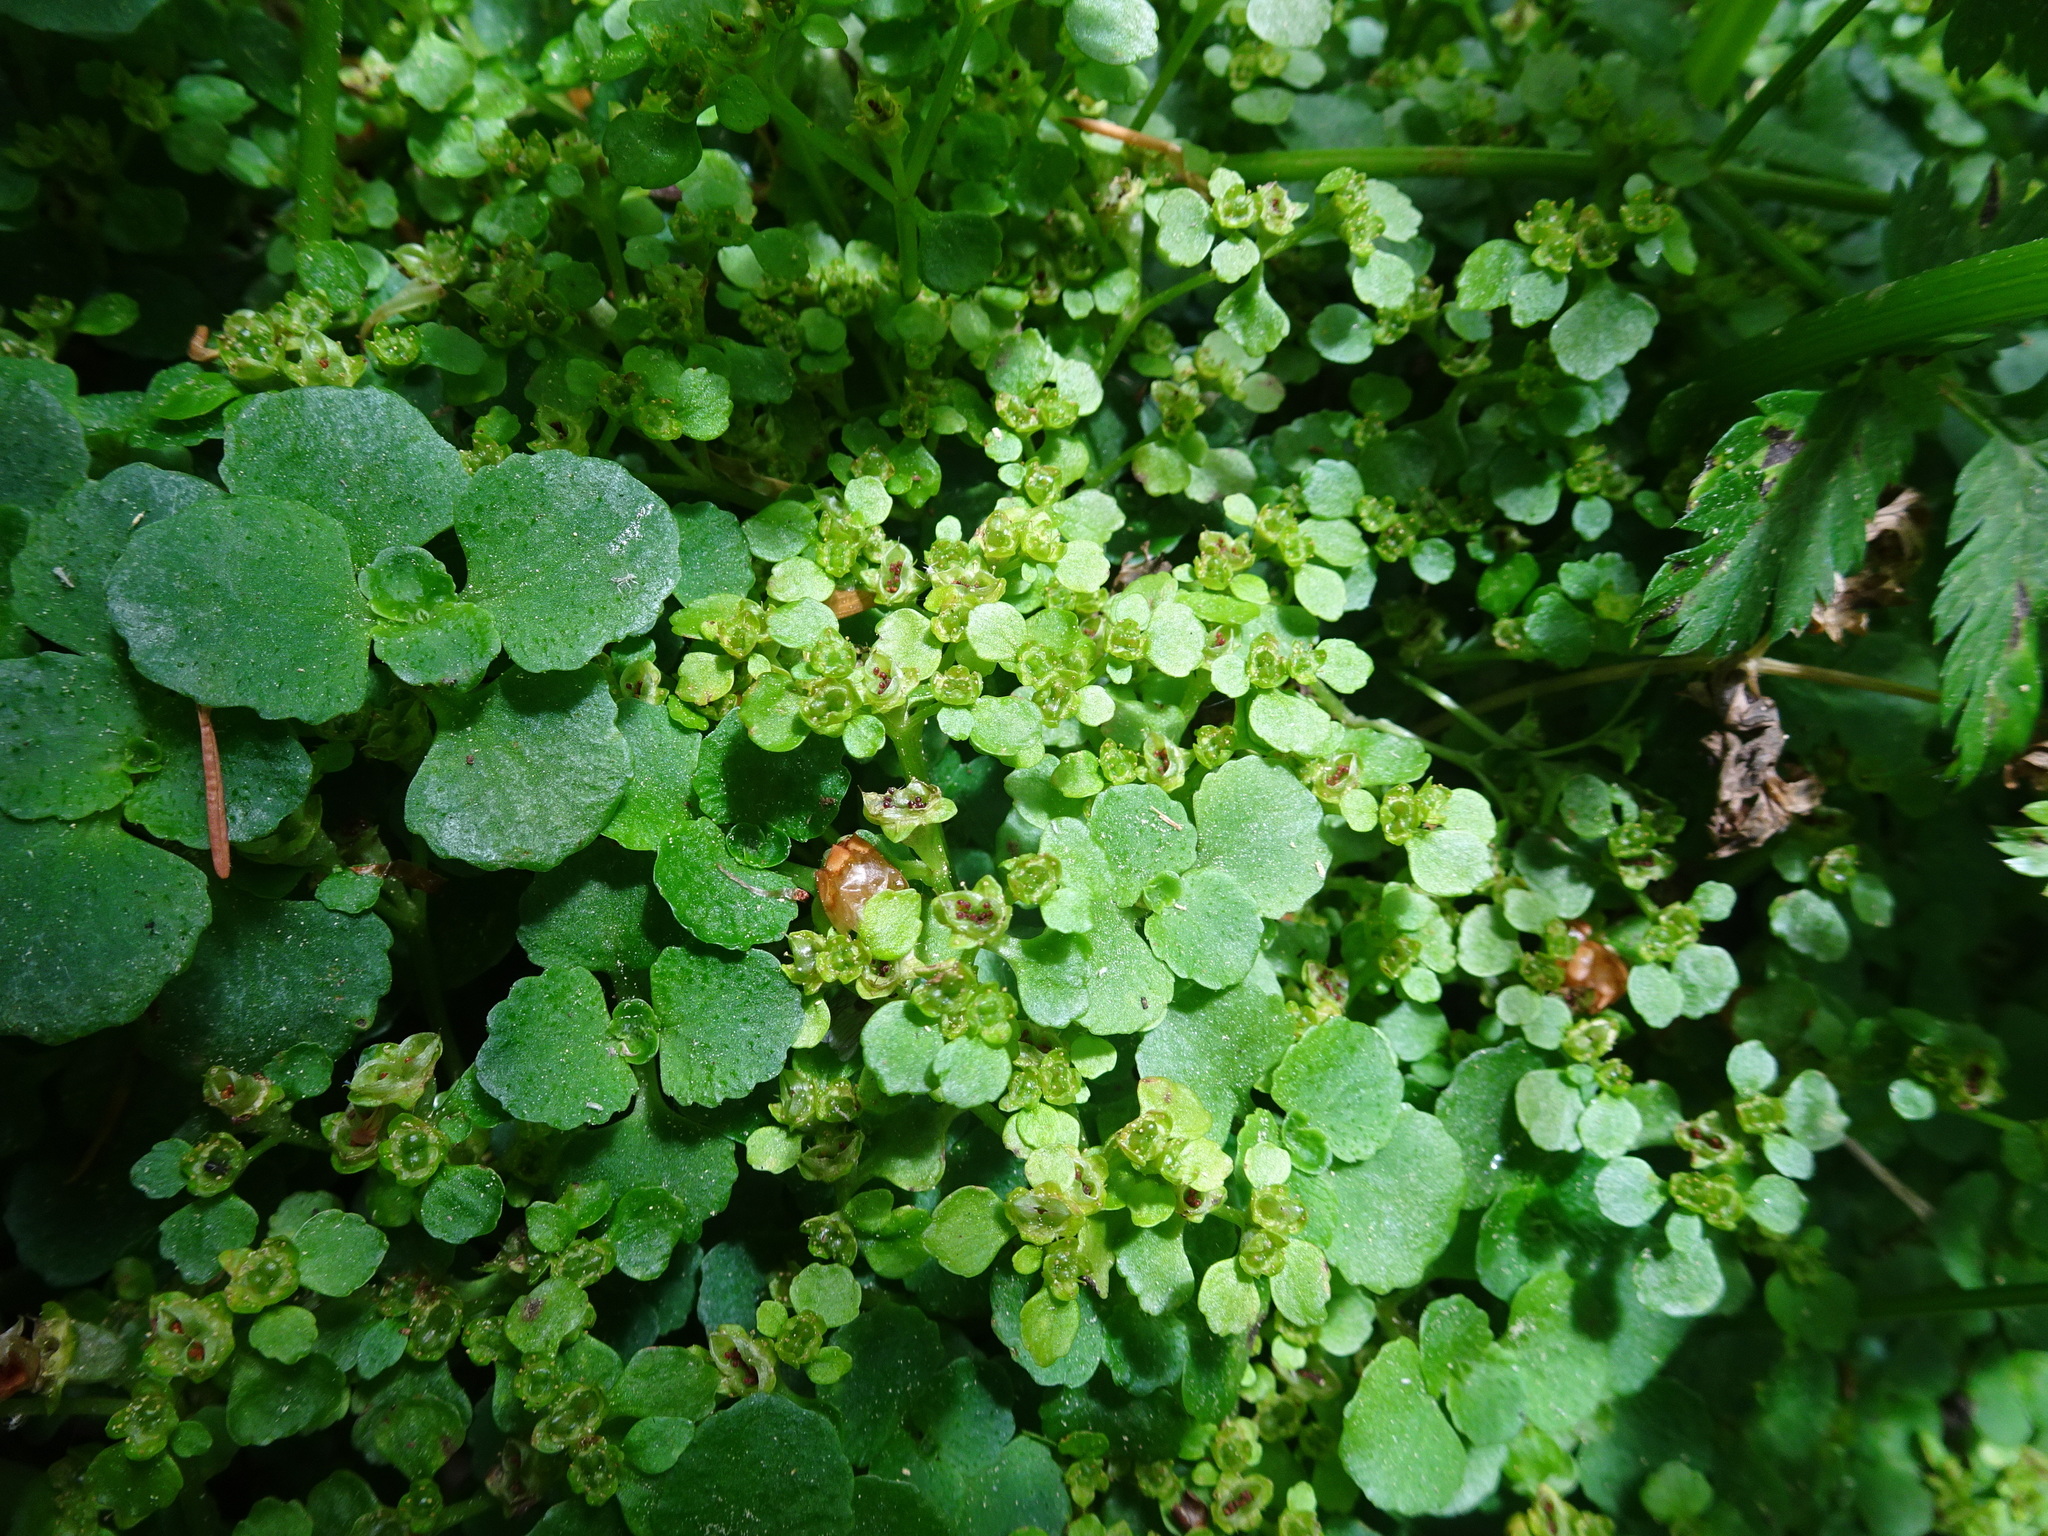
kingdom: Plantae
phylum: Tracheophyta
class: Magnoliopsida
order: Saxifragales
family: Saxifragaceae
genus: Chrysosplenium
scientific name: Chrysosplenium oppositifolium
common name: Opposite-leaved golden-saxifrage
